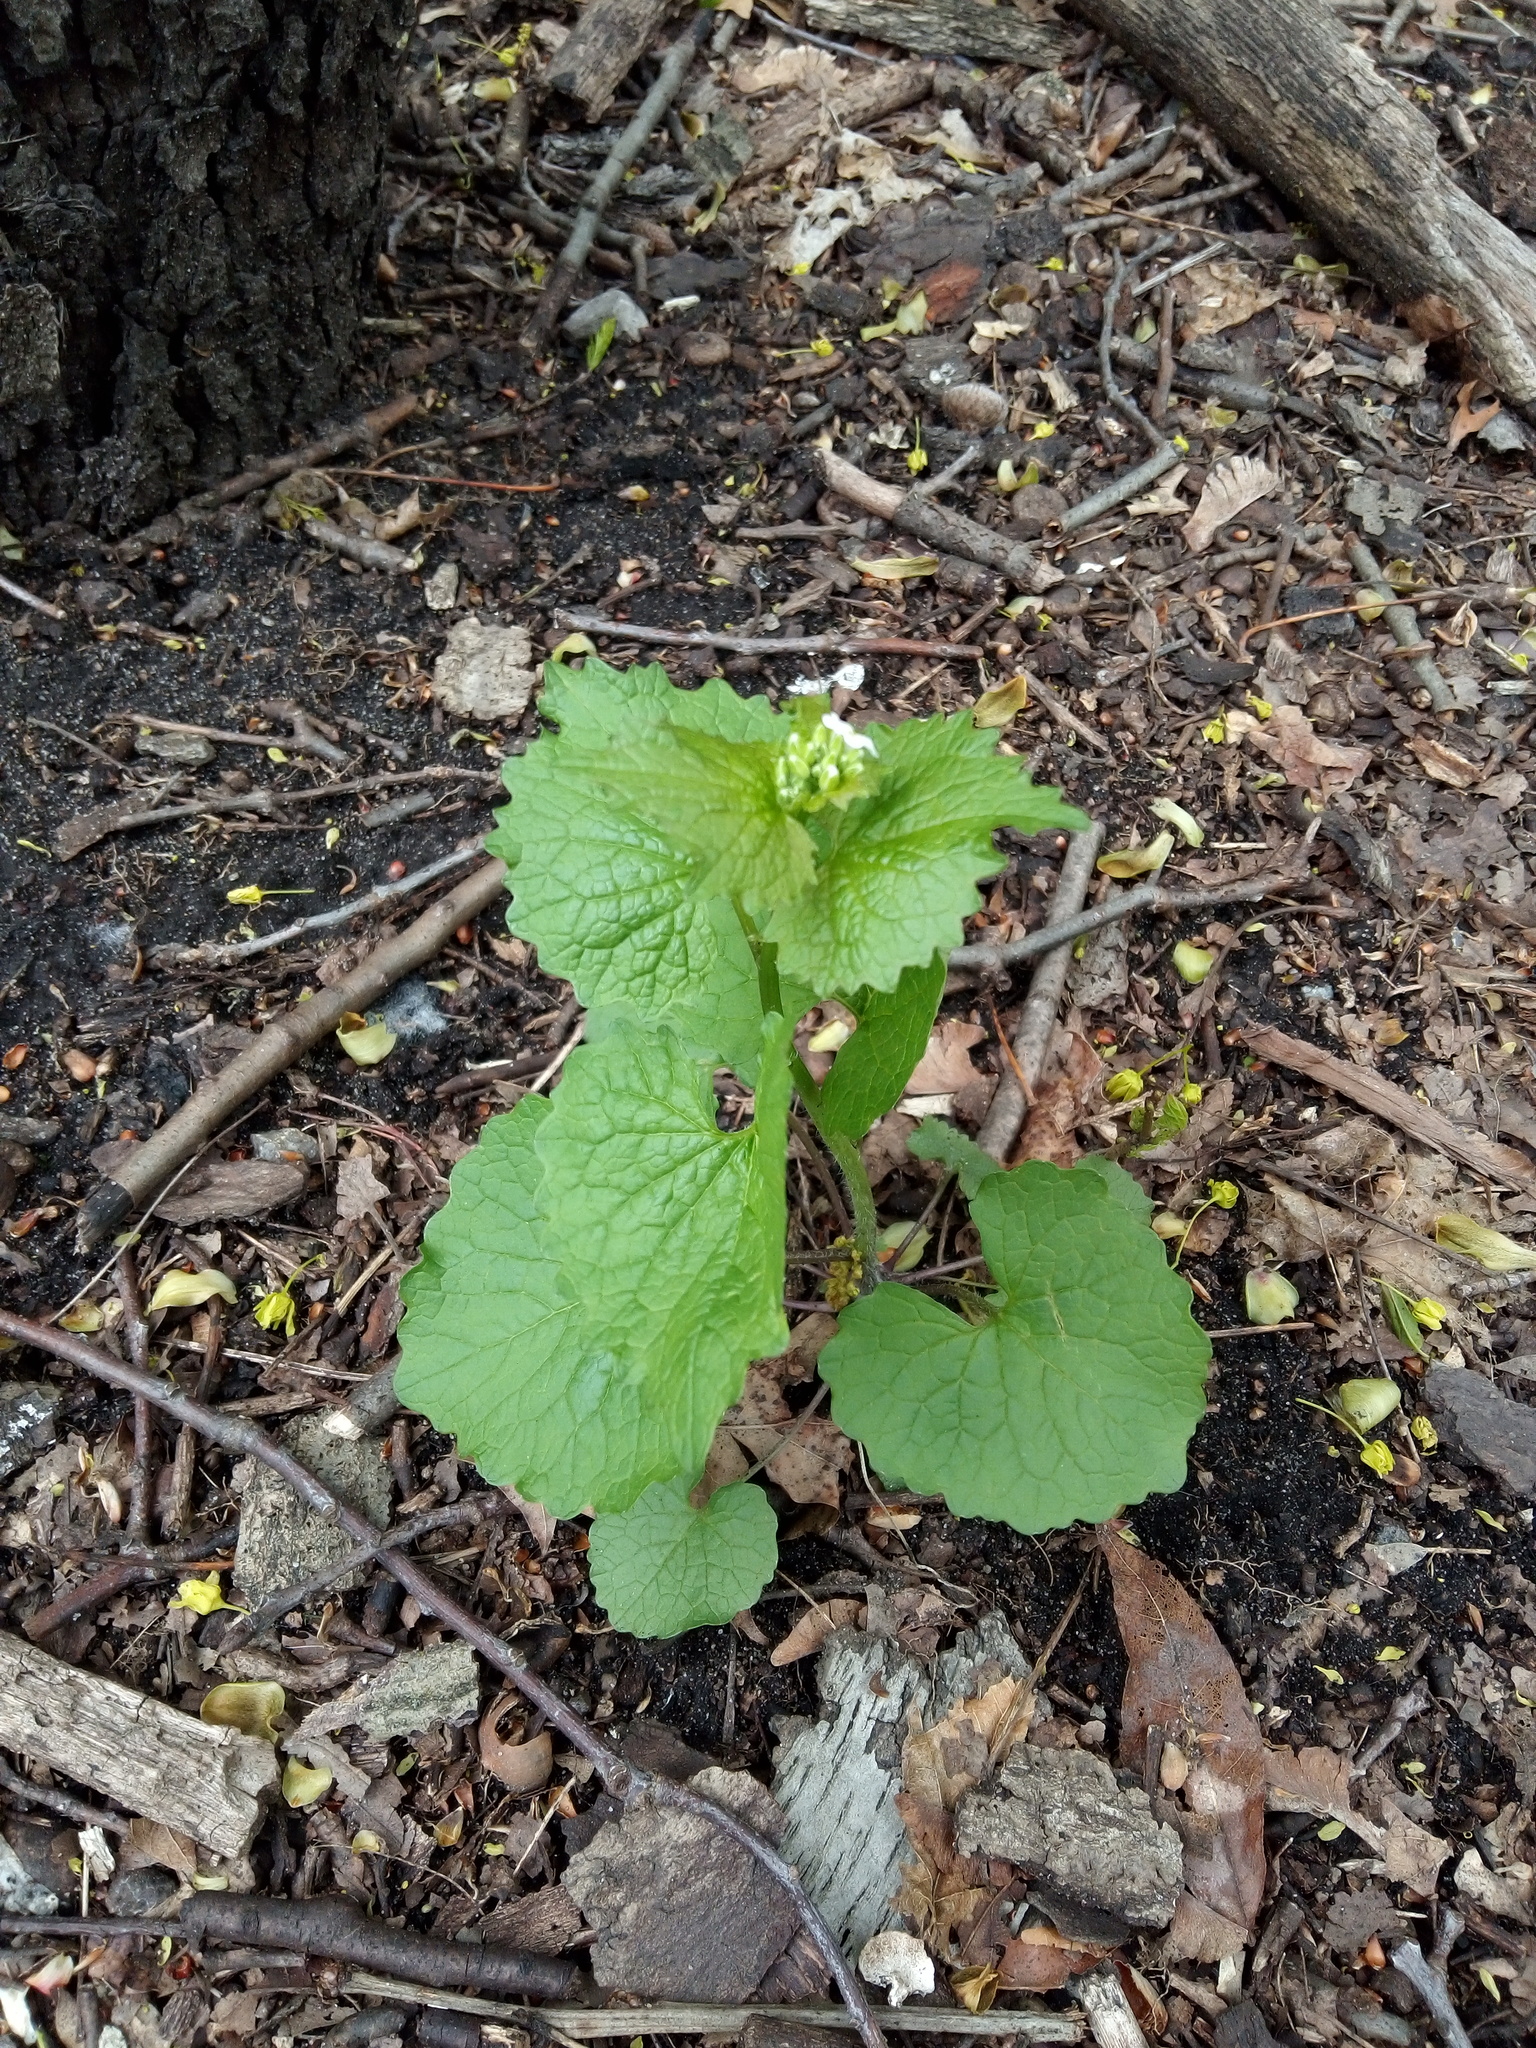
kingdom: Plantae
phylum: Tracheophyta
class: Magnoliopsida
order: Brassicales
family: Brassicaceae
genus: Alliaria
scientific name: Alliaria petiolata
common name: Garlic mustard
